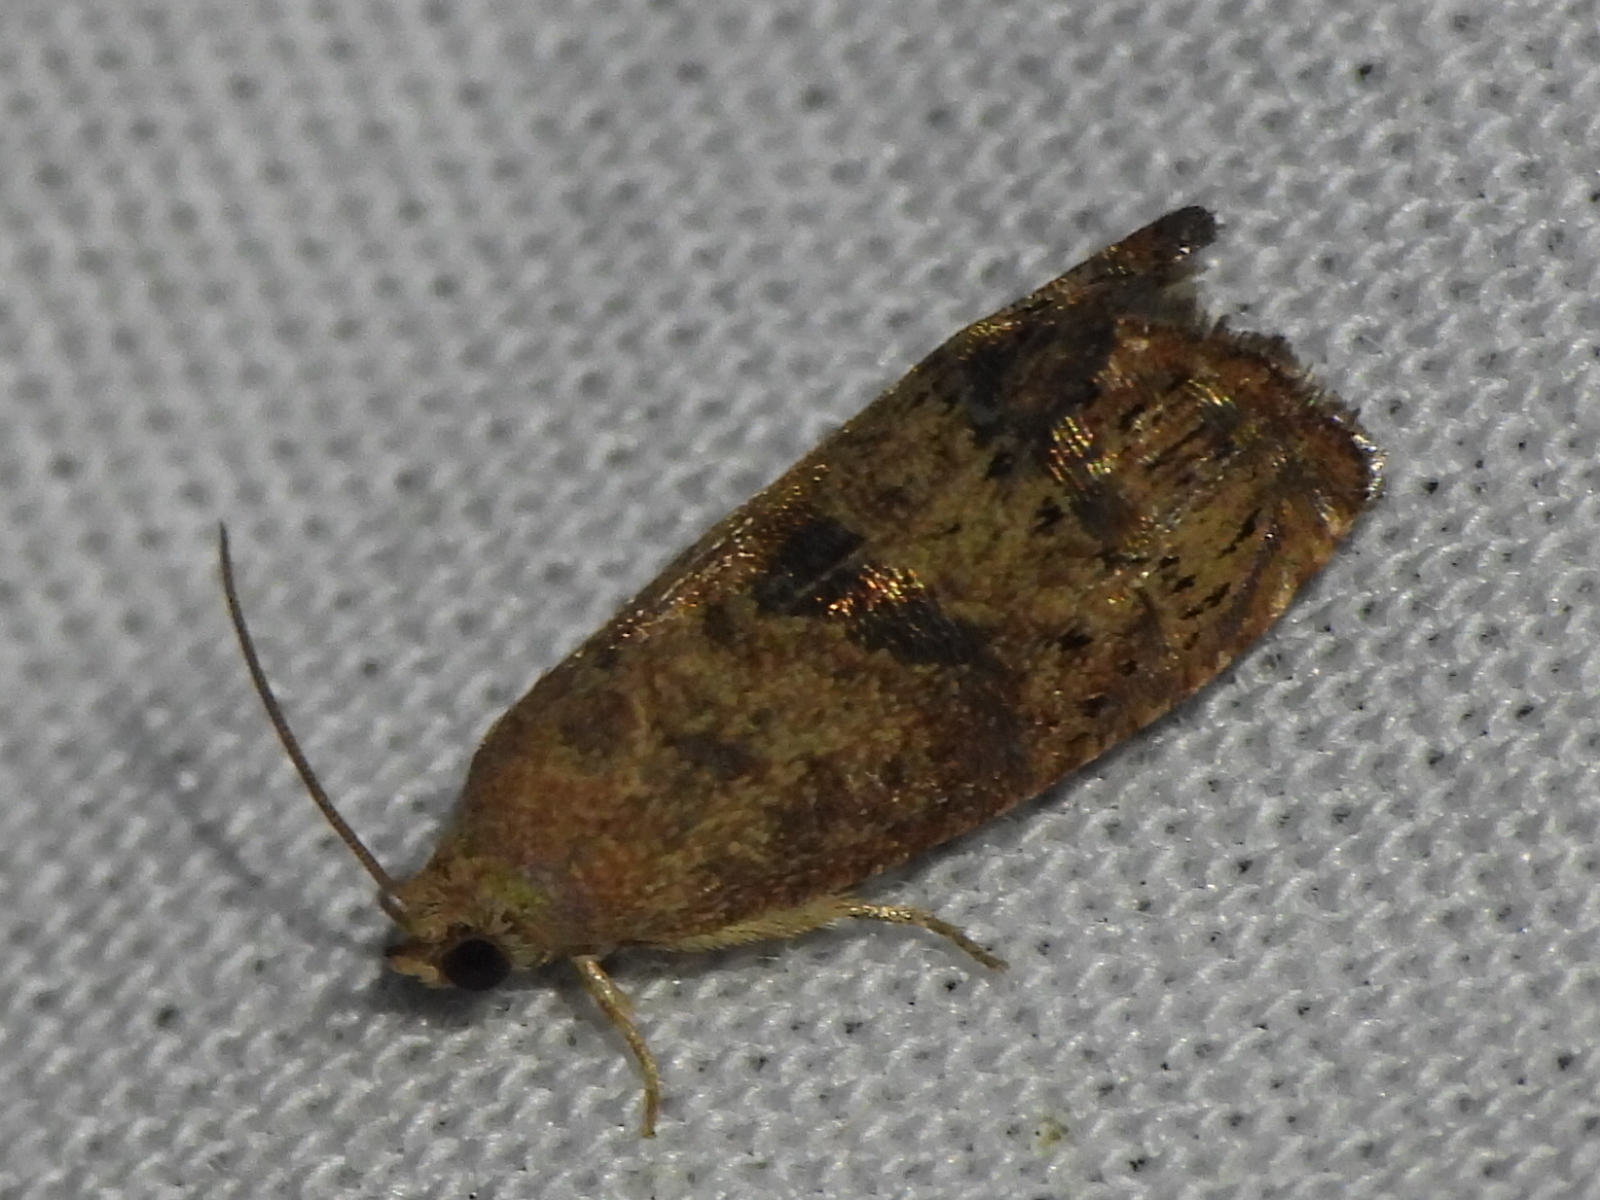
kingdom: Animalia
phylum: Arthropoda
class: Insecta
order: Lepidoptera
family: Tortricidae
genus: Cydia
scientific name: Cydia latiferreana
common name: Filbertworm moth
